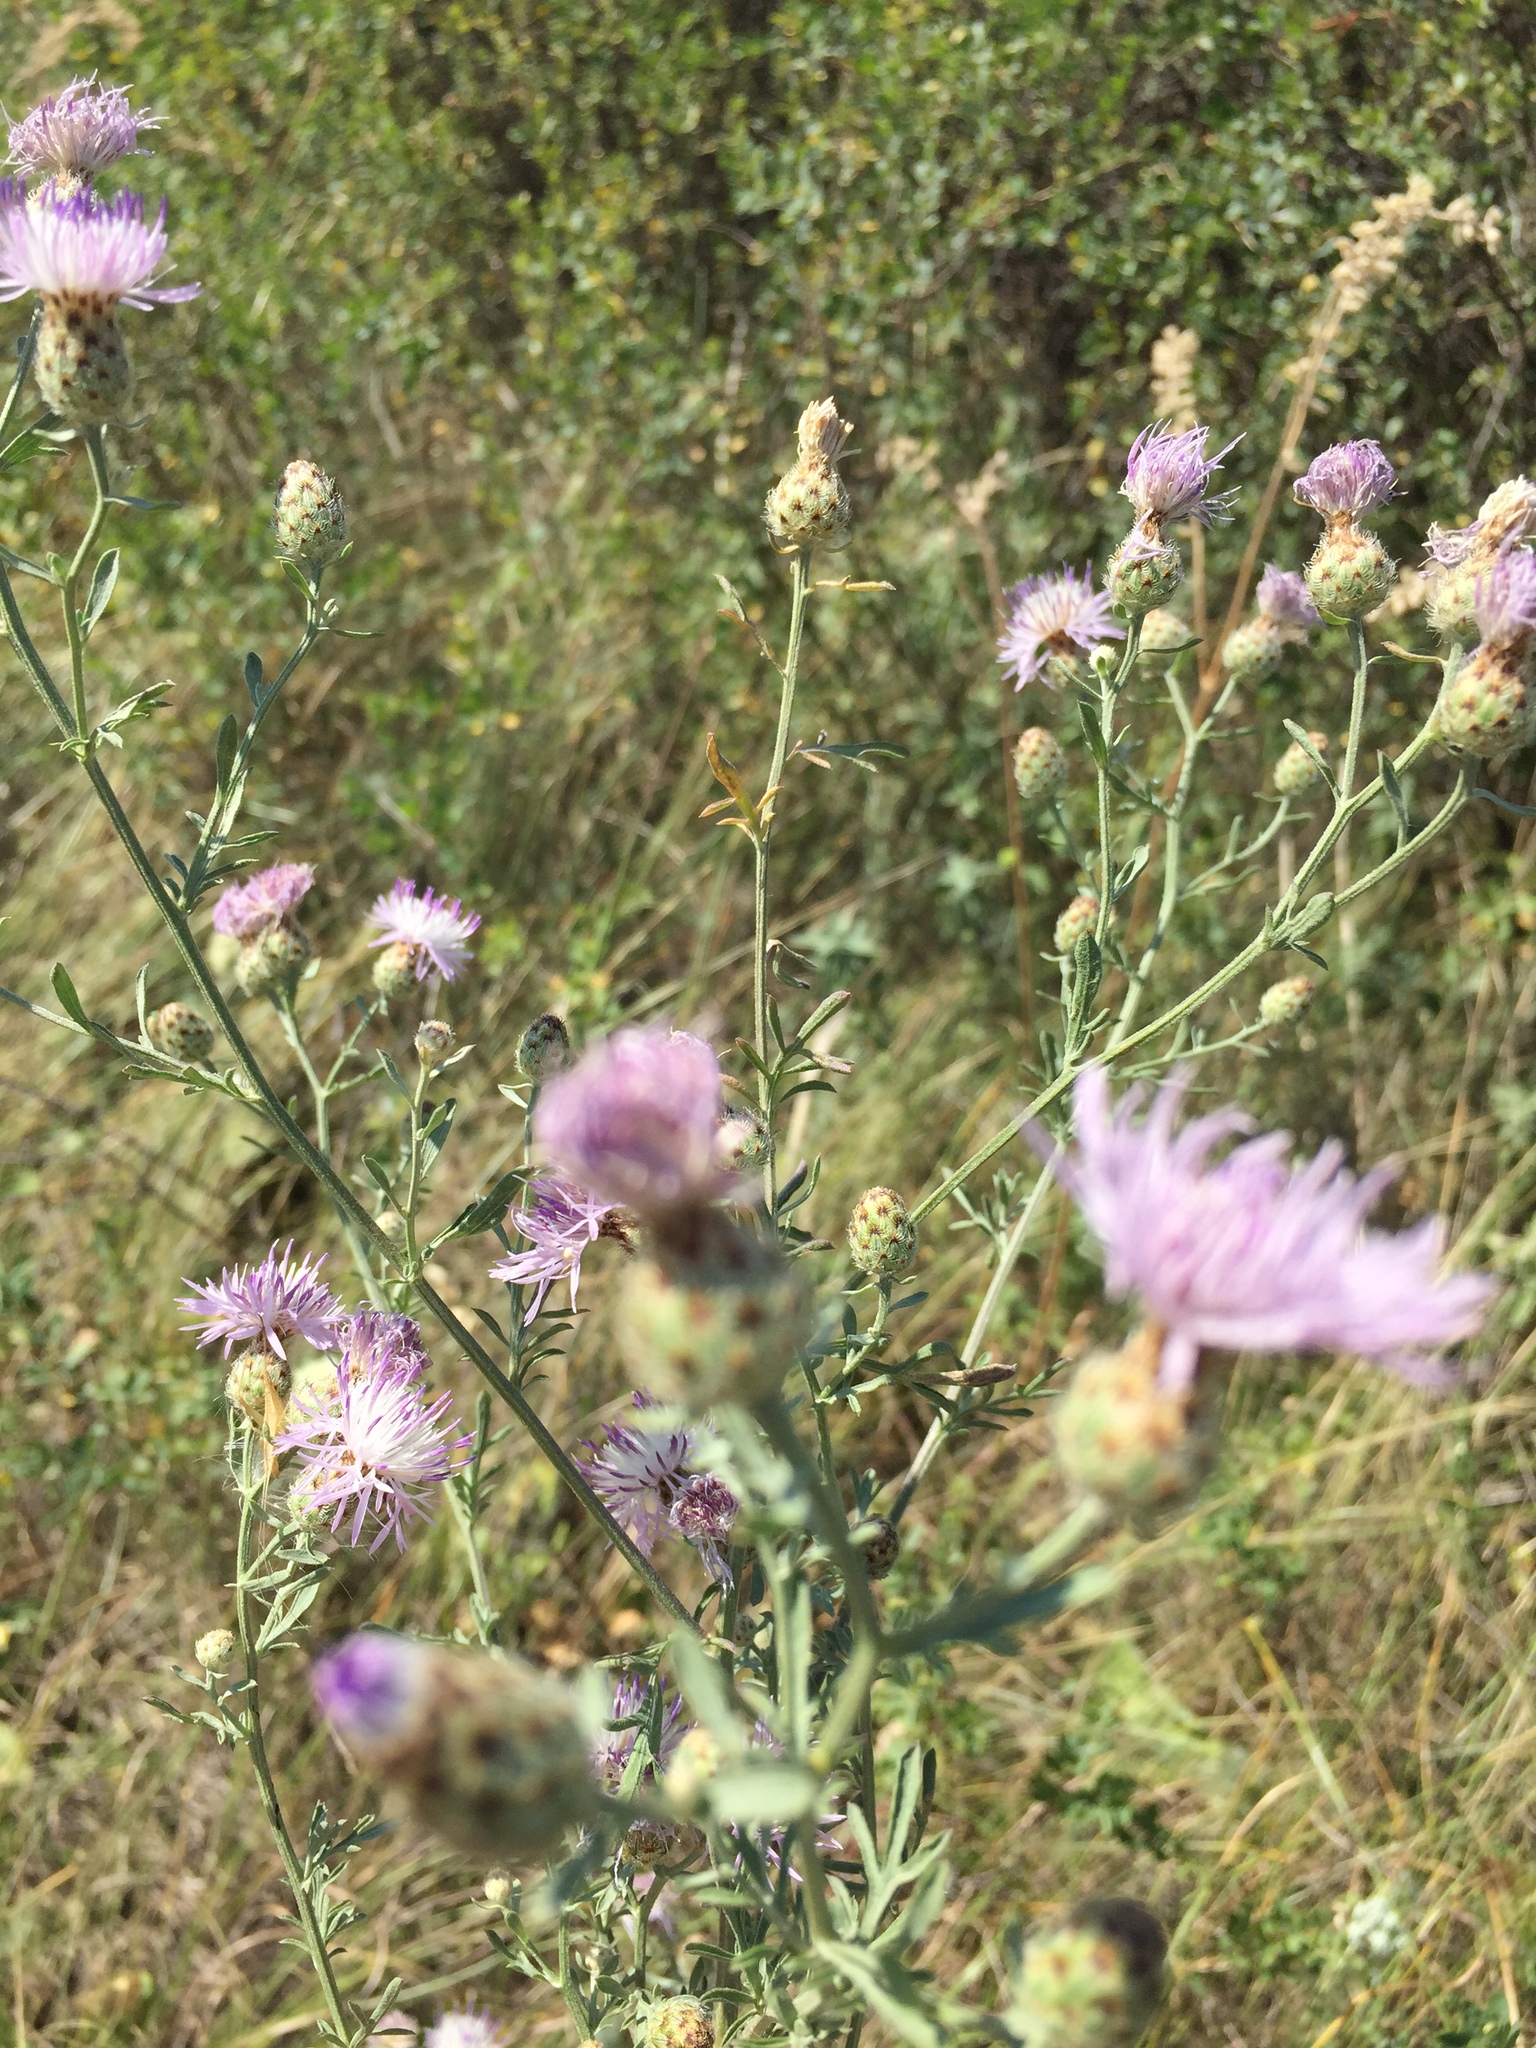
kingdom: Plantae
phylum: Tracheophyta
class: Magnoliopsida
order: Asterales
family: Asteraceae
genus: Centaurea
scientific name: Centaurea stoebe
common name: Spotted knapweed
